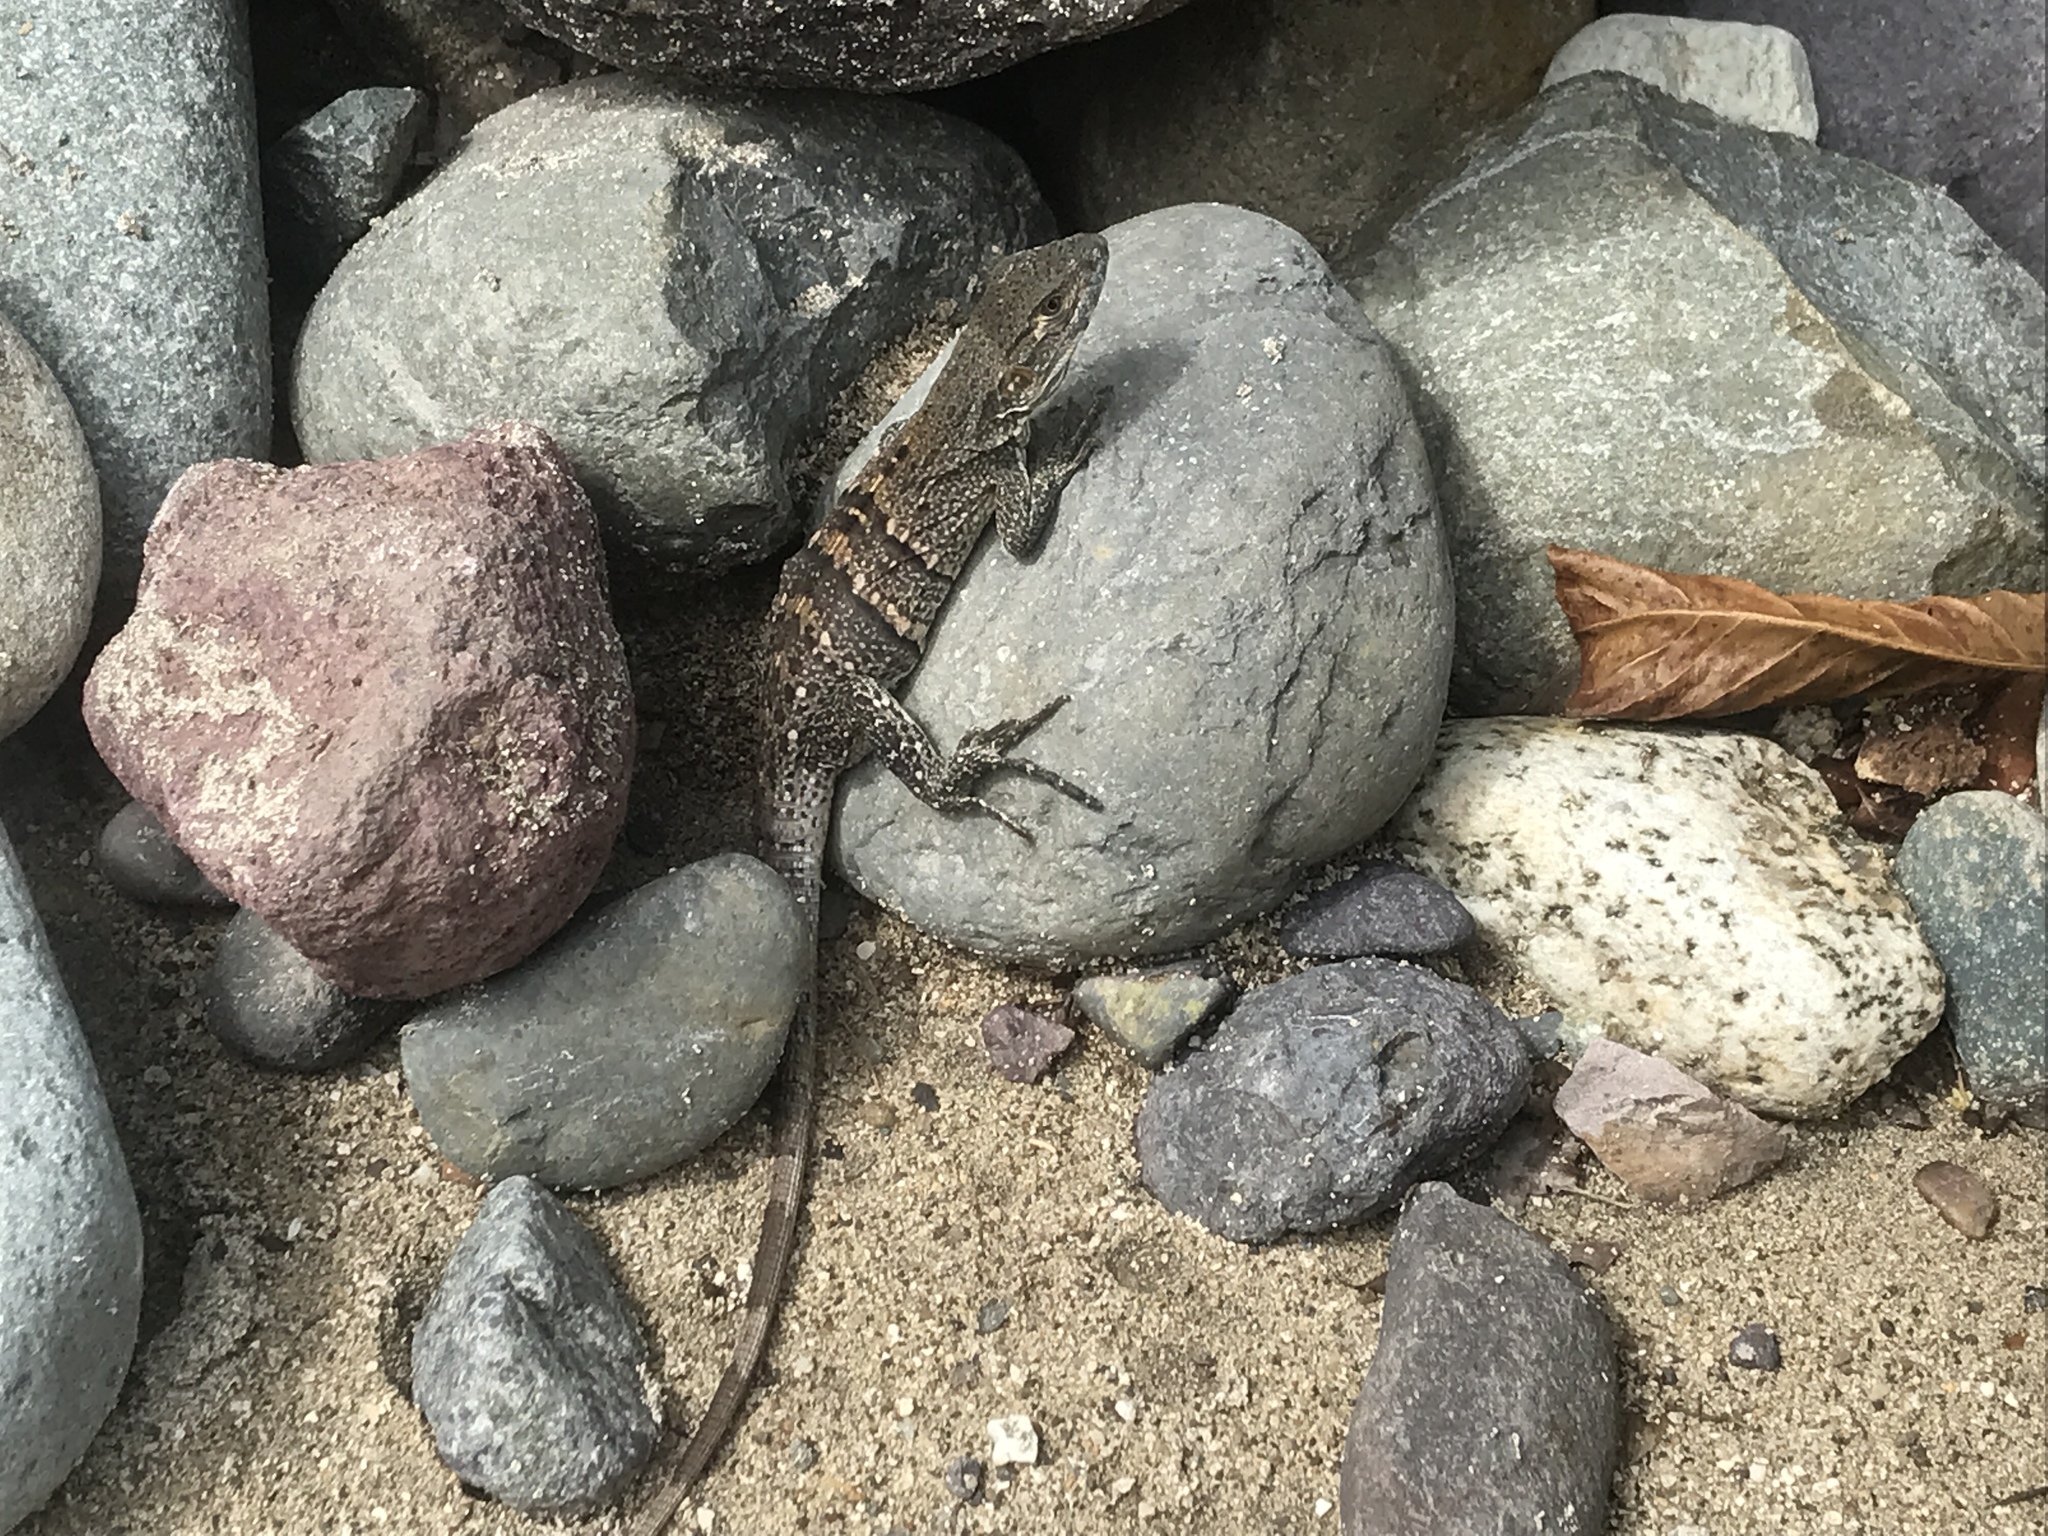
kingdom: Animalia
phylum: Chordata
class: Squamata
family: Iguanidae
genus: Ctenosaura
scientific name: Ctenosaura oedirhina
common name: Roatan spiny-tailed iguana
